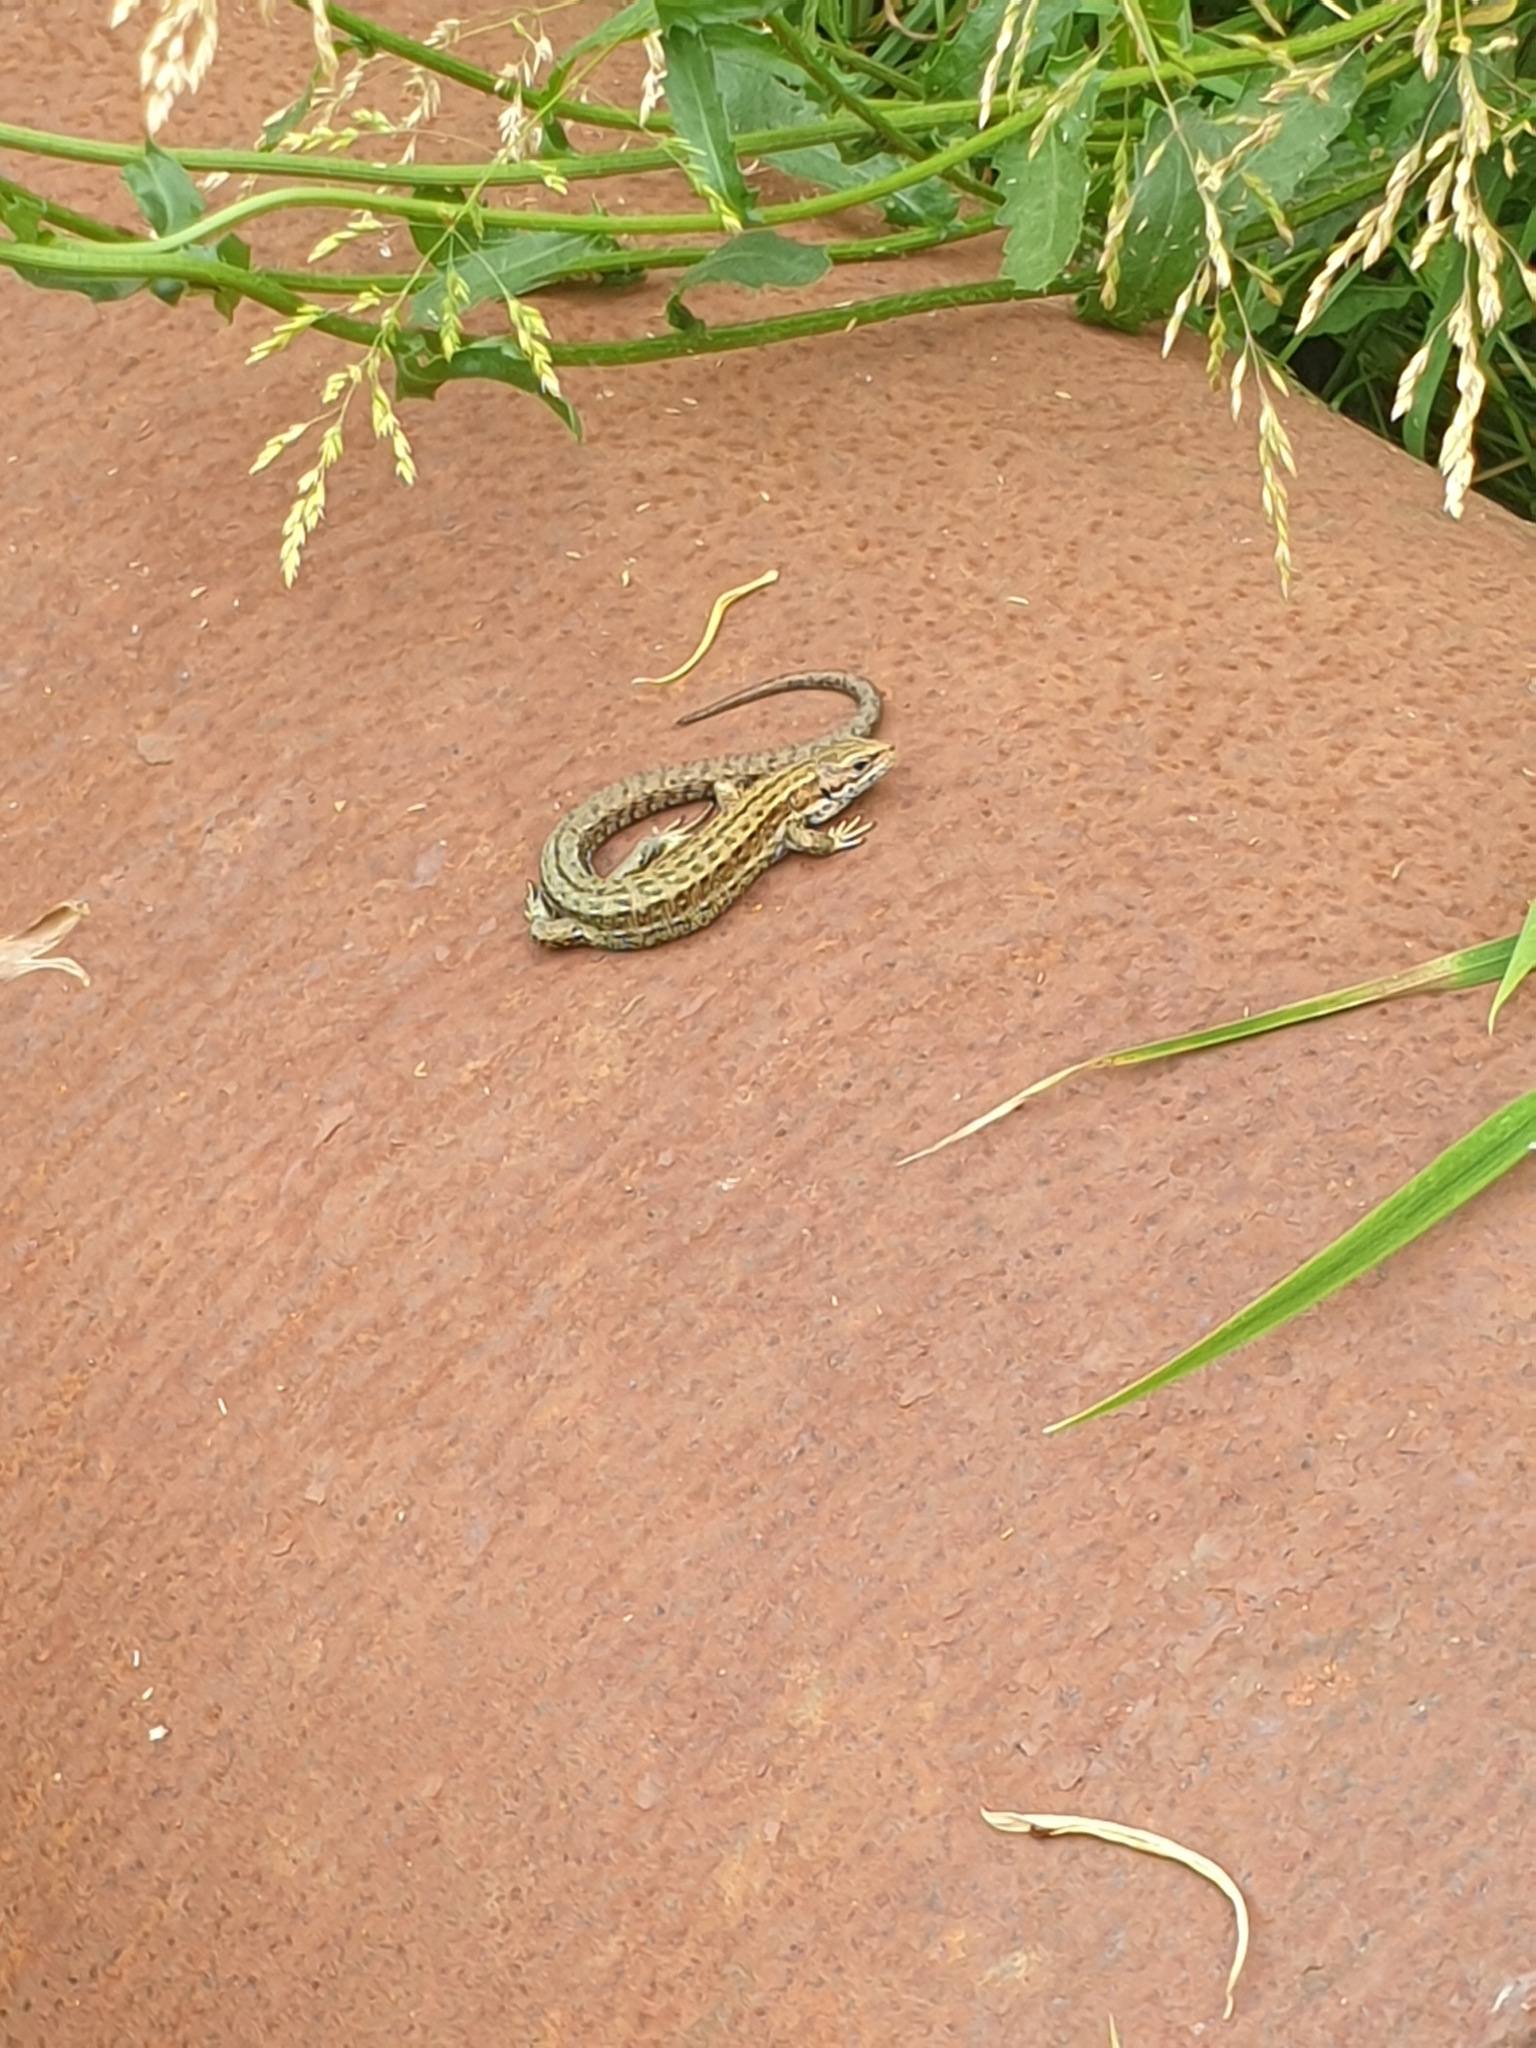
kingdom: Animalia
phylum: Chordata
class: Squamata
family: Lacertidae
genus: Zootoca
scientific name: Zootoca vivipara
